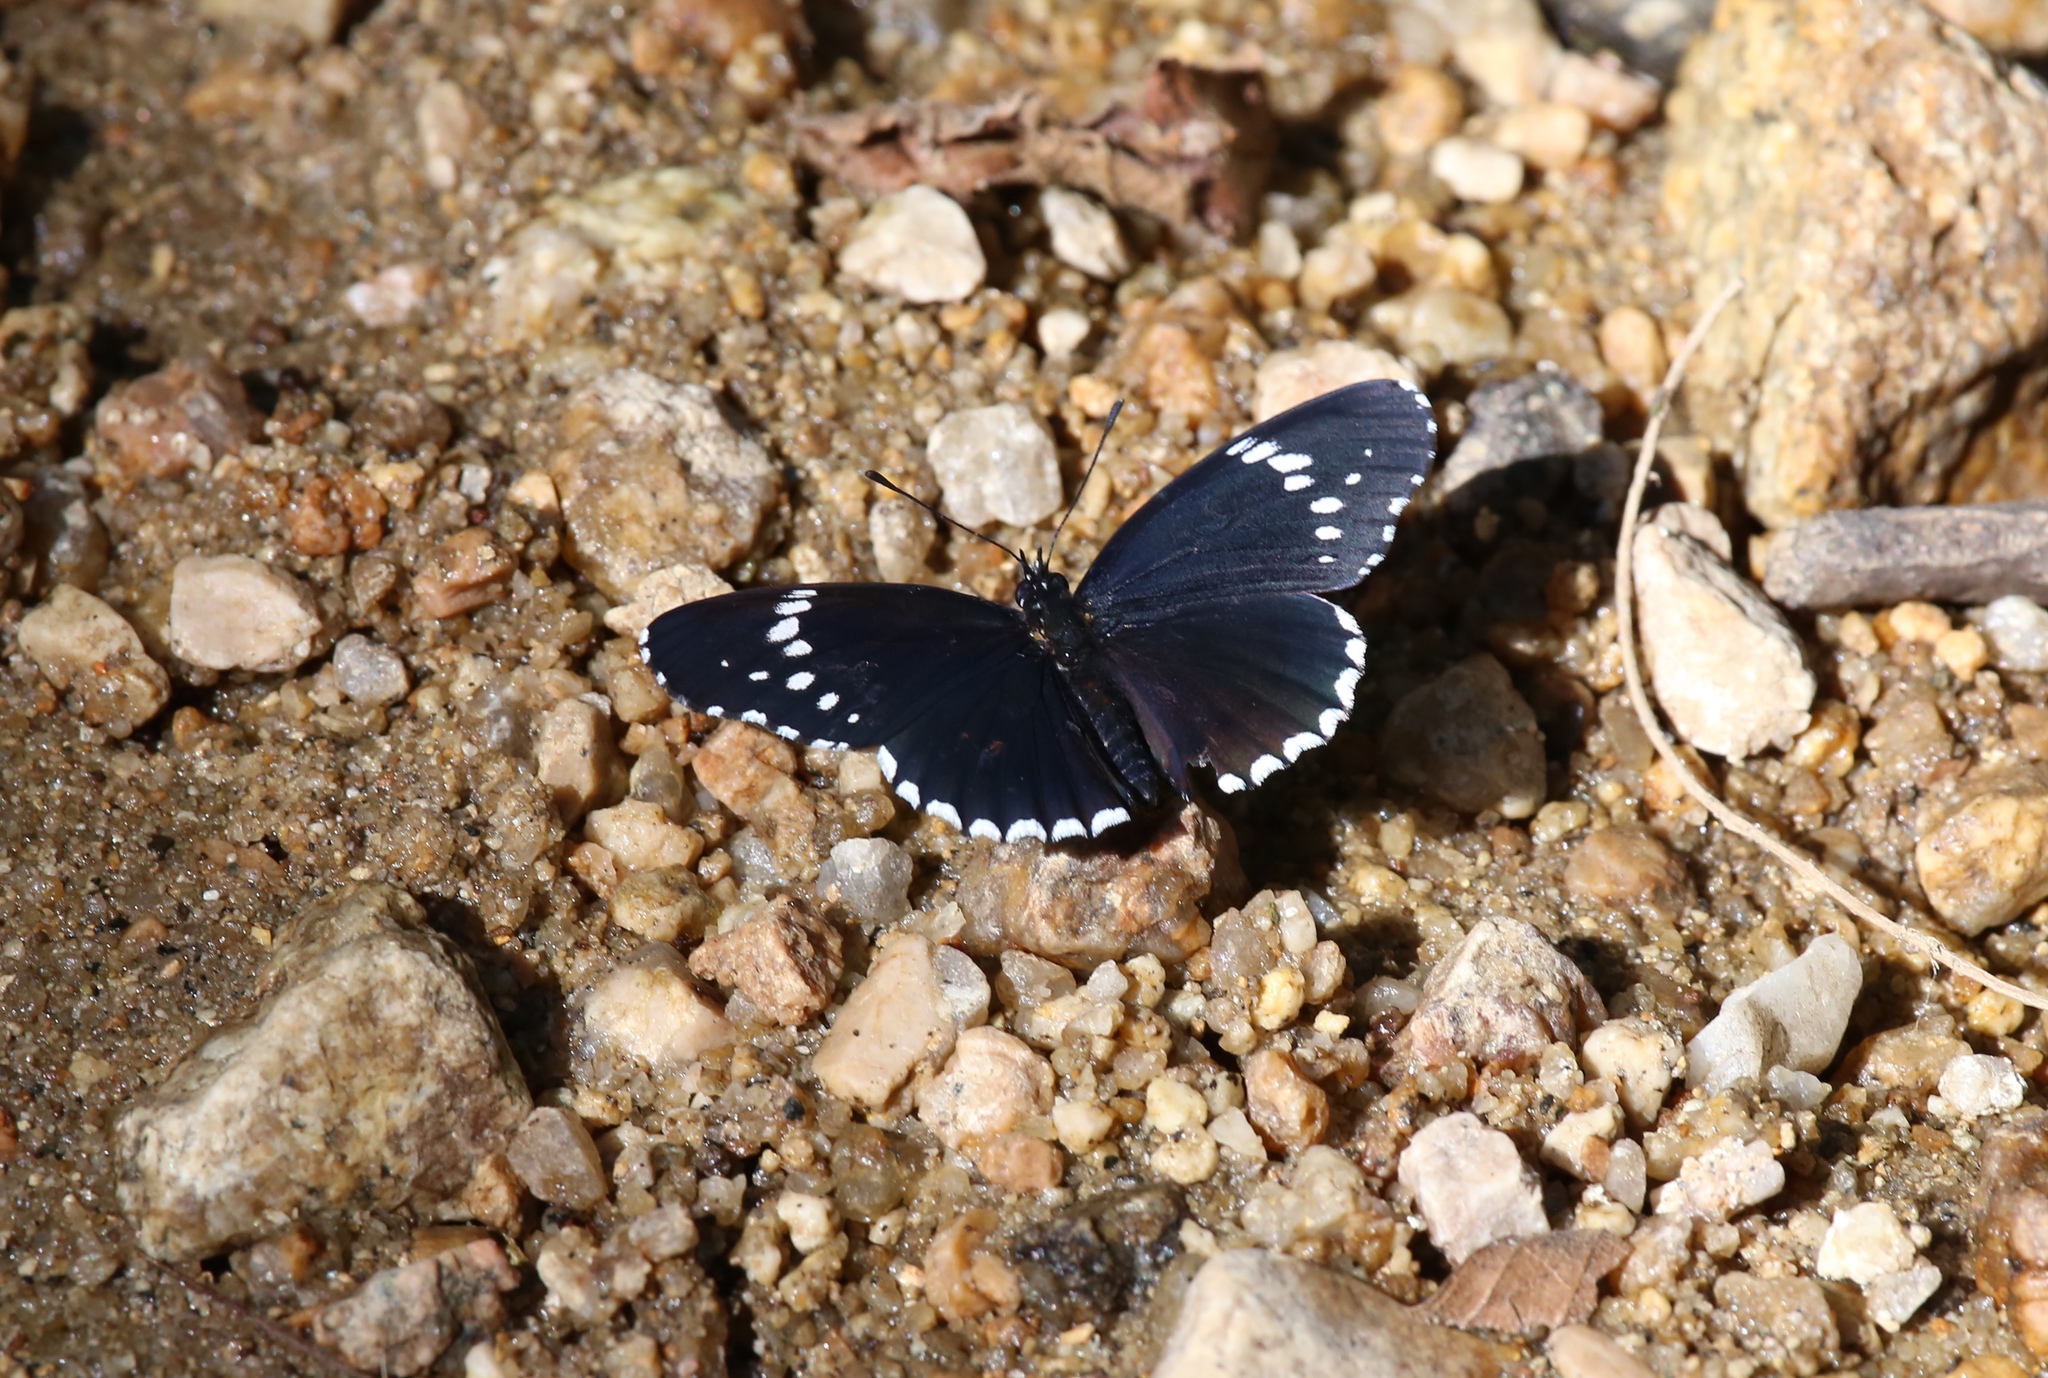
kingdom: Animalia
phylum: Arthropoda
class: Insecta
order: Lepidoptera
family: Nymphalidae
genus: Chlosyne
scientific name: Chlosyne hippodrome
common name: Simple patch
